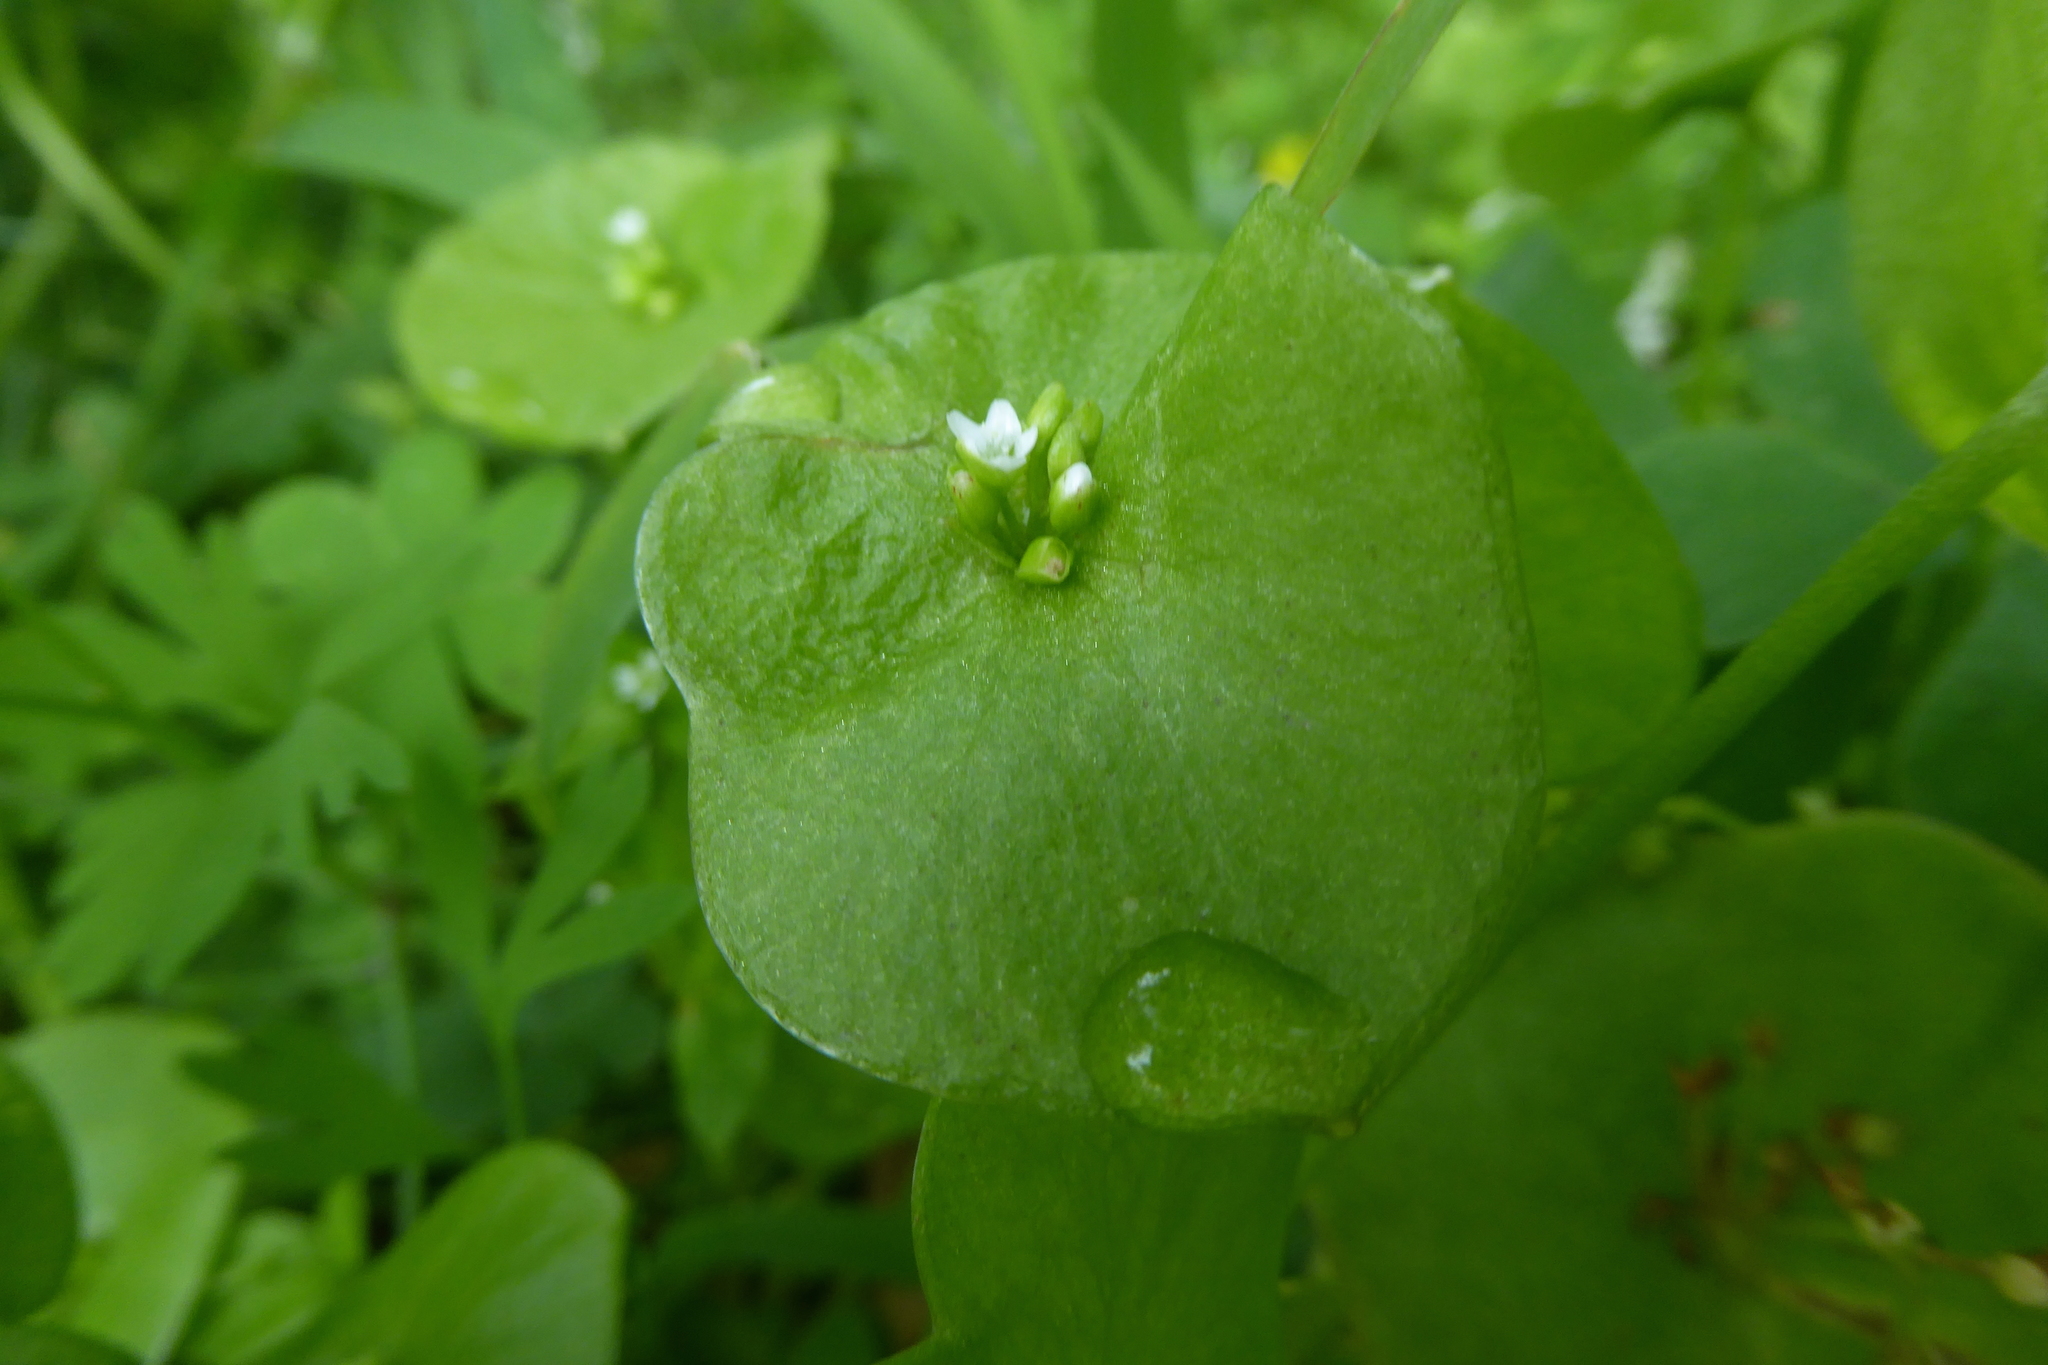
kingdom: Plantae
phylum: Tracheophyta
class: Magnoliopsida
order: Caryophyllales
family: Montiaceae
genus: Claytonia
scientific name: Claytonia perfoliata
